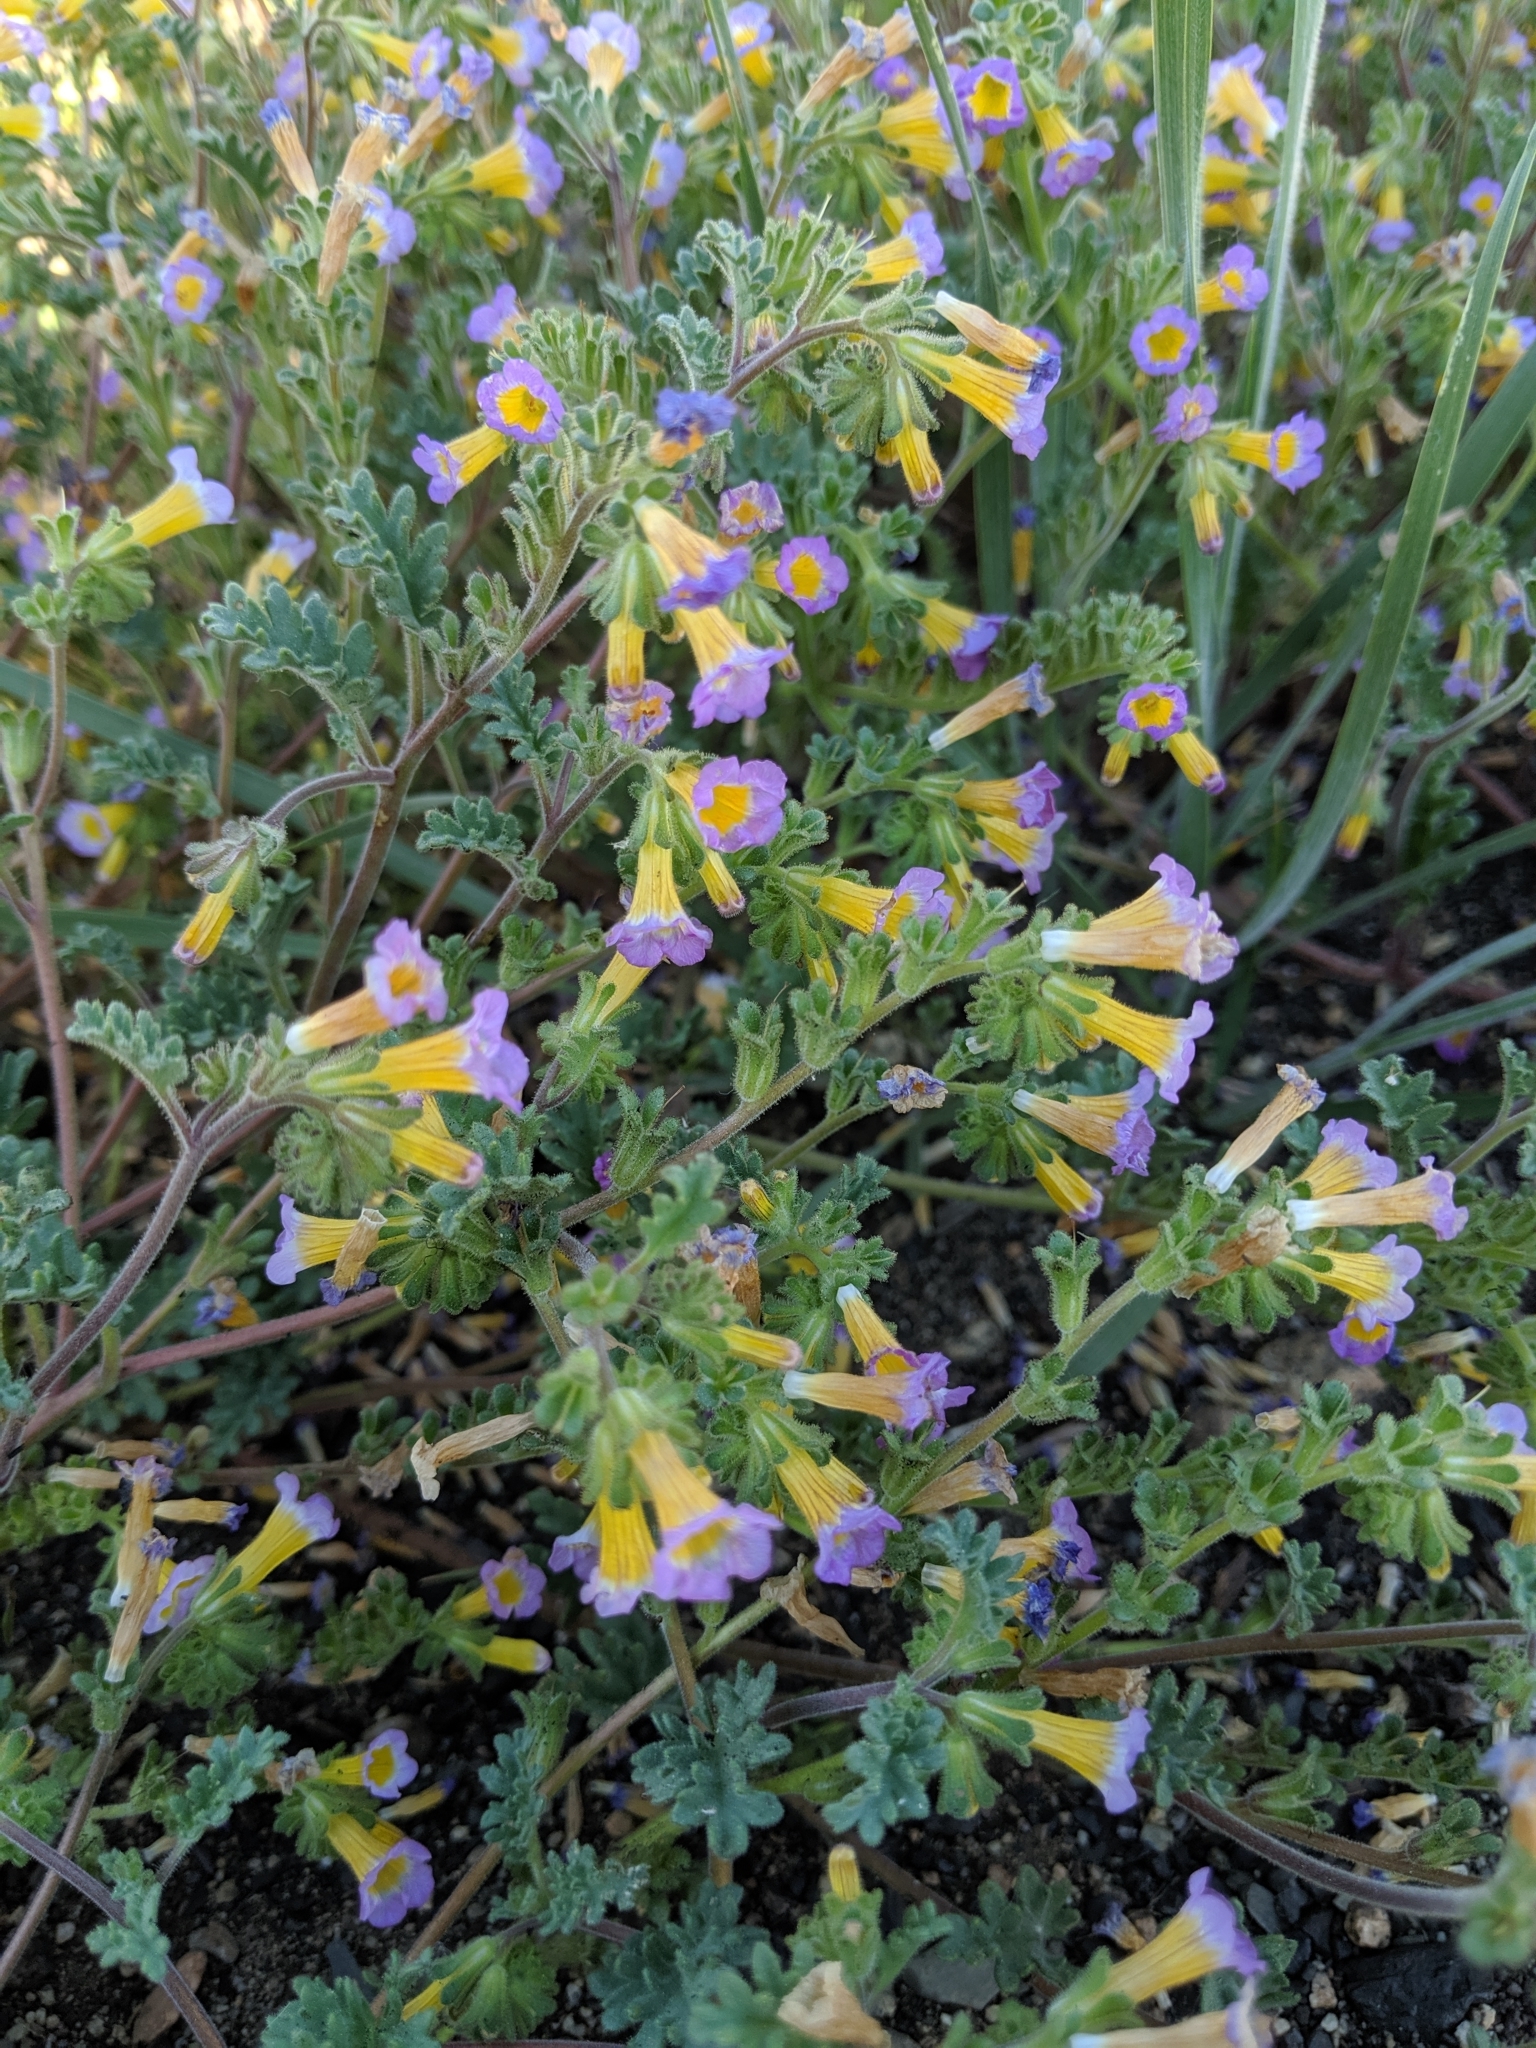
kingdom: Plantae
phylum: Tracheophyta
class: Magnoliopsida
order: Boraginales
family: Hydrophyllaceae
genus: Phacelia
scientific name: Phacelia bicolor
